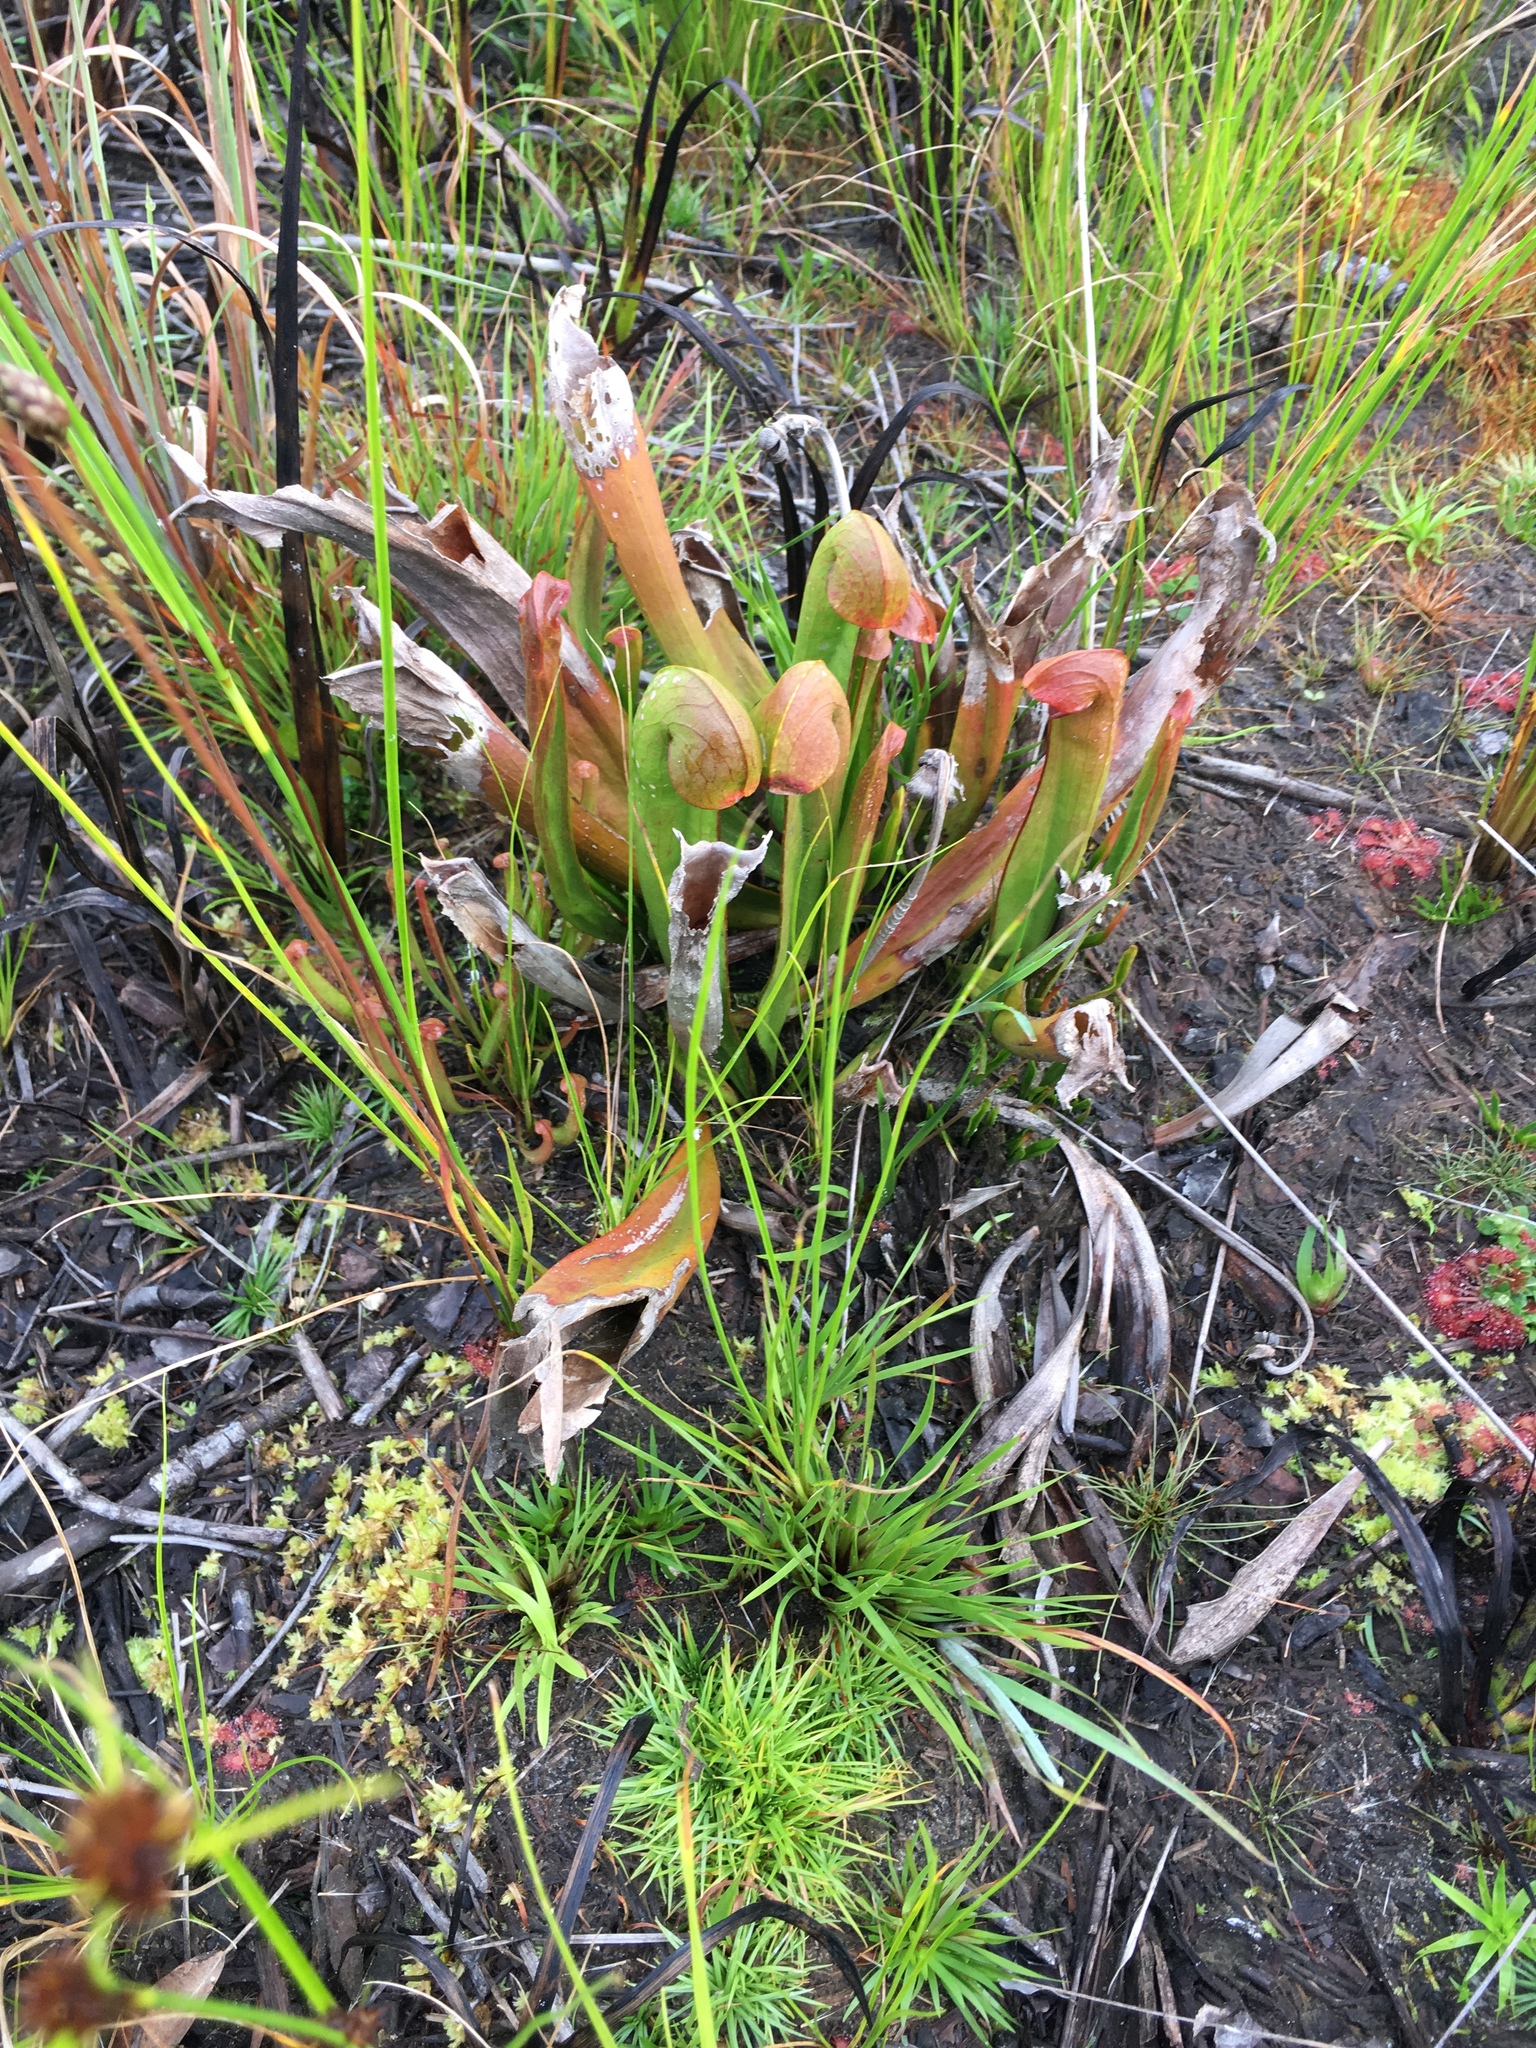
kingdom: Plantae
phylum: Tracheophyta
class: Magnoliopsida
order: Ericales
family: Sarraceniaceae
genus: Sarracenia
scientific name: Sarracenia minor
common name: Rainhat-trumpet
